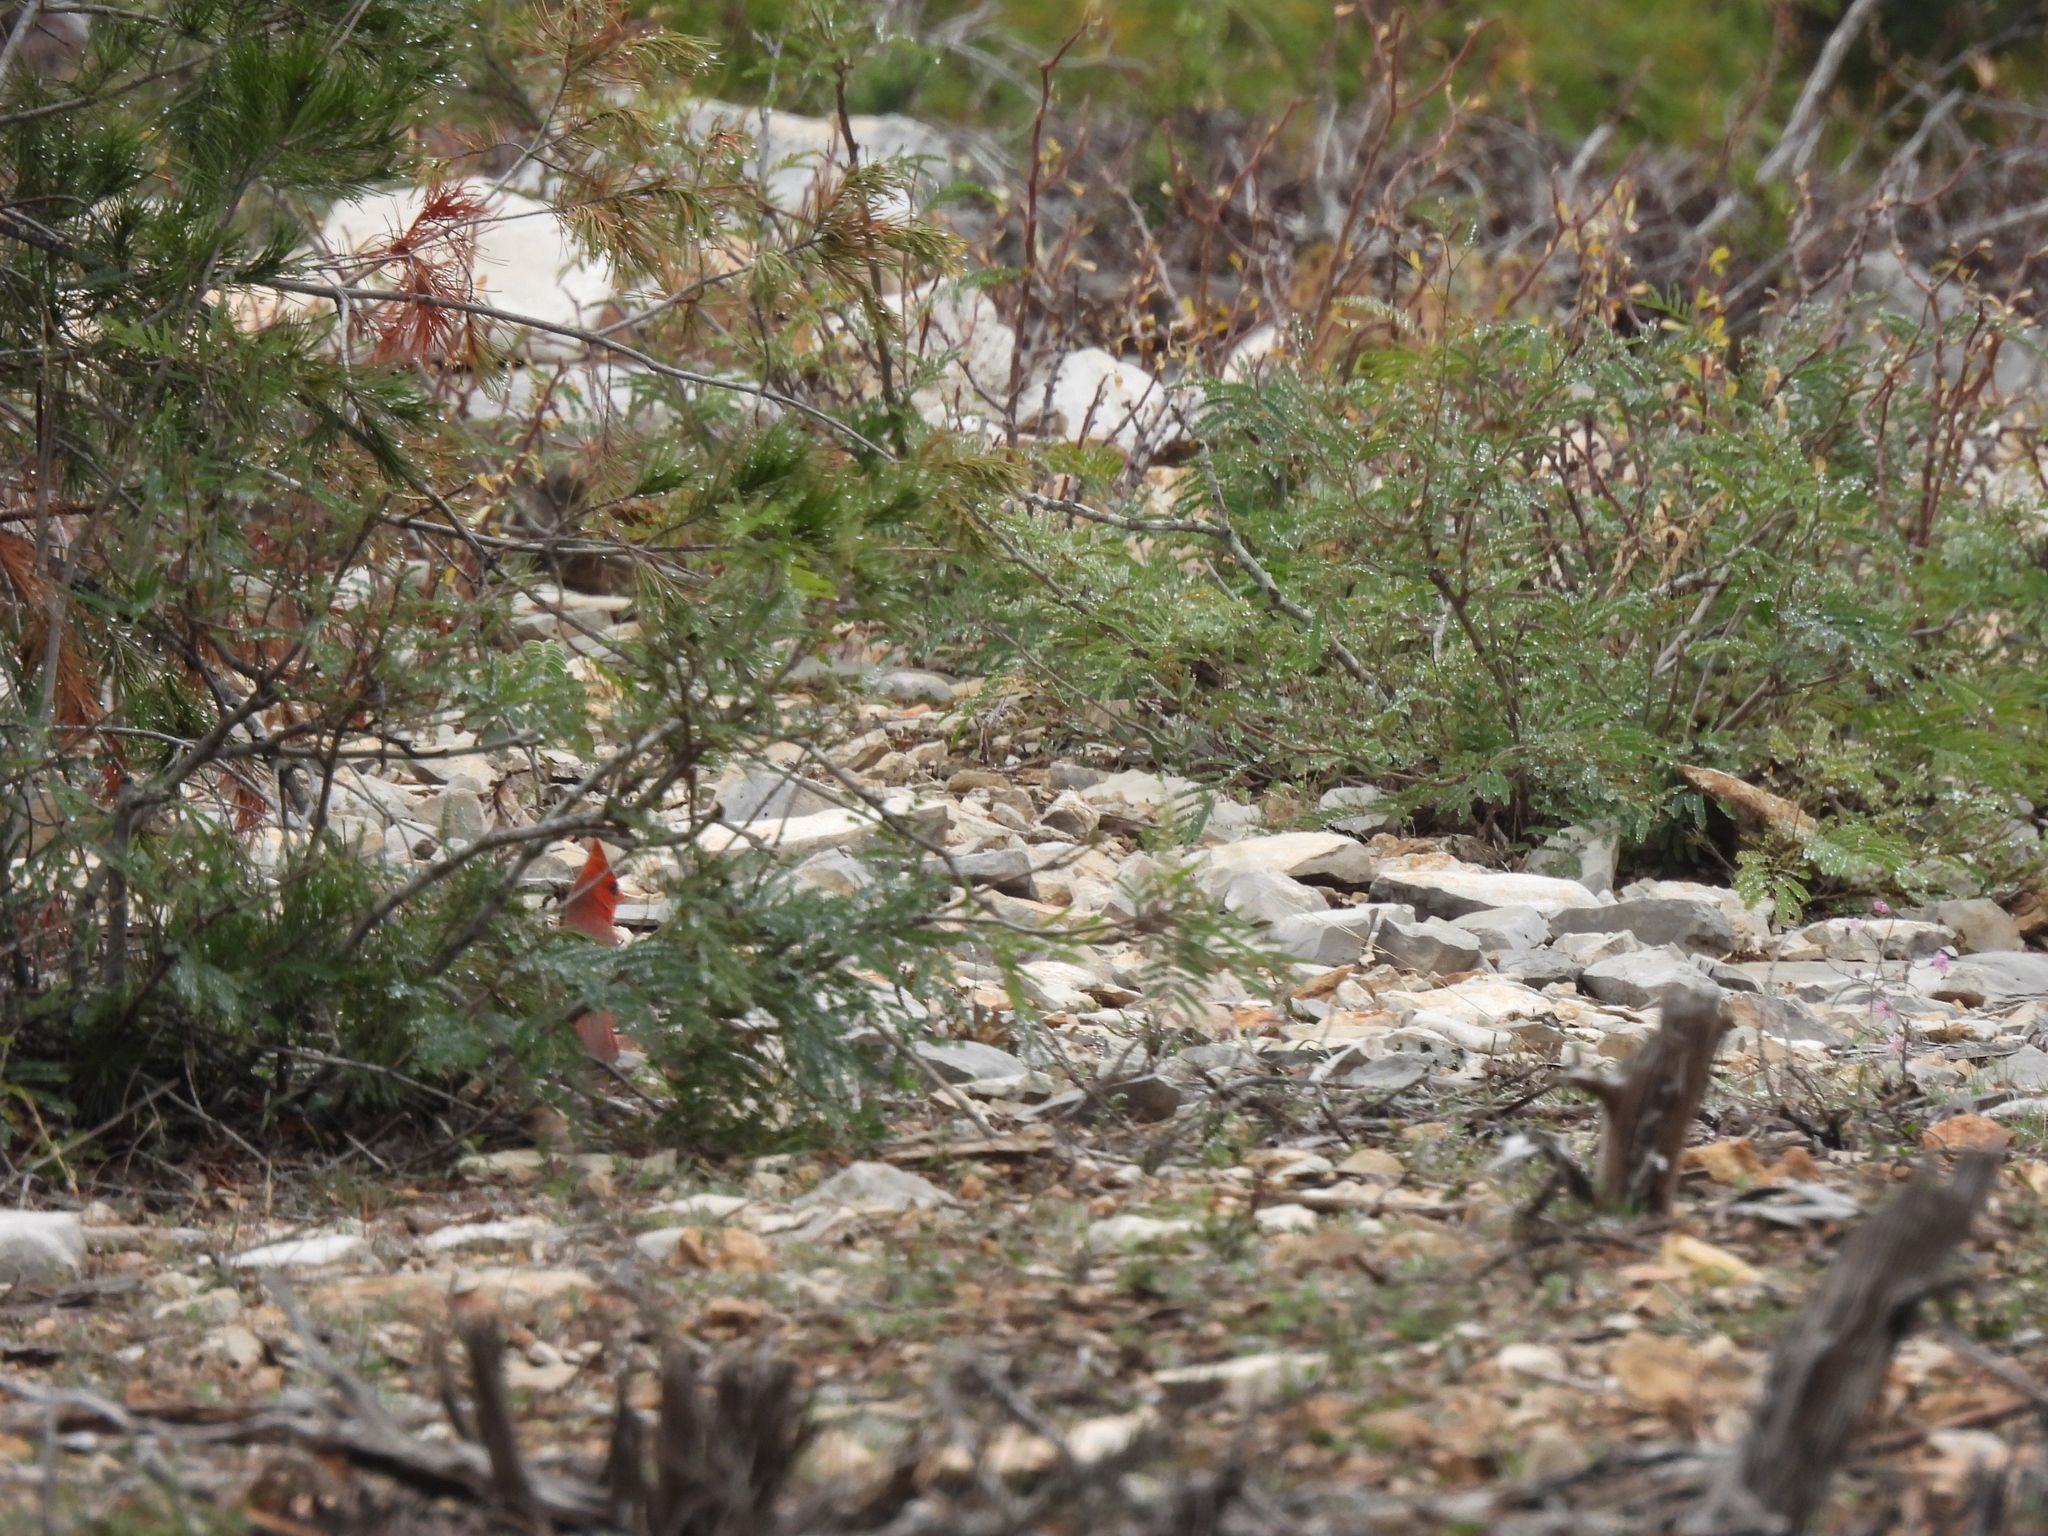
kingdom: Animalia
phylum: Chordata
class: Aves
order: Passeriformes
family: Cardinalidae
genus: Cardinalis
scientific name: Cardinalis cardinalis
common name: Northern cardinal
